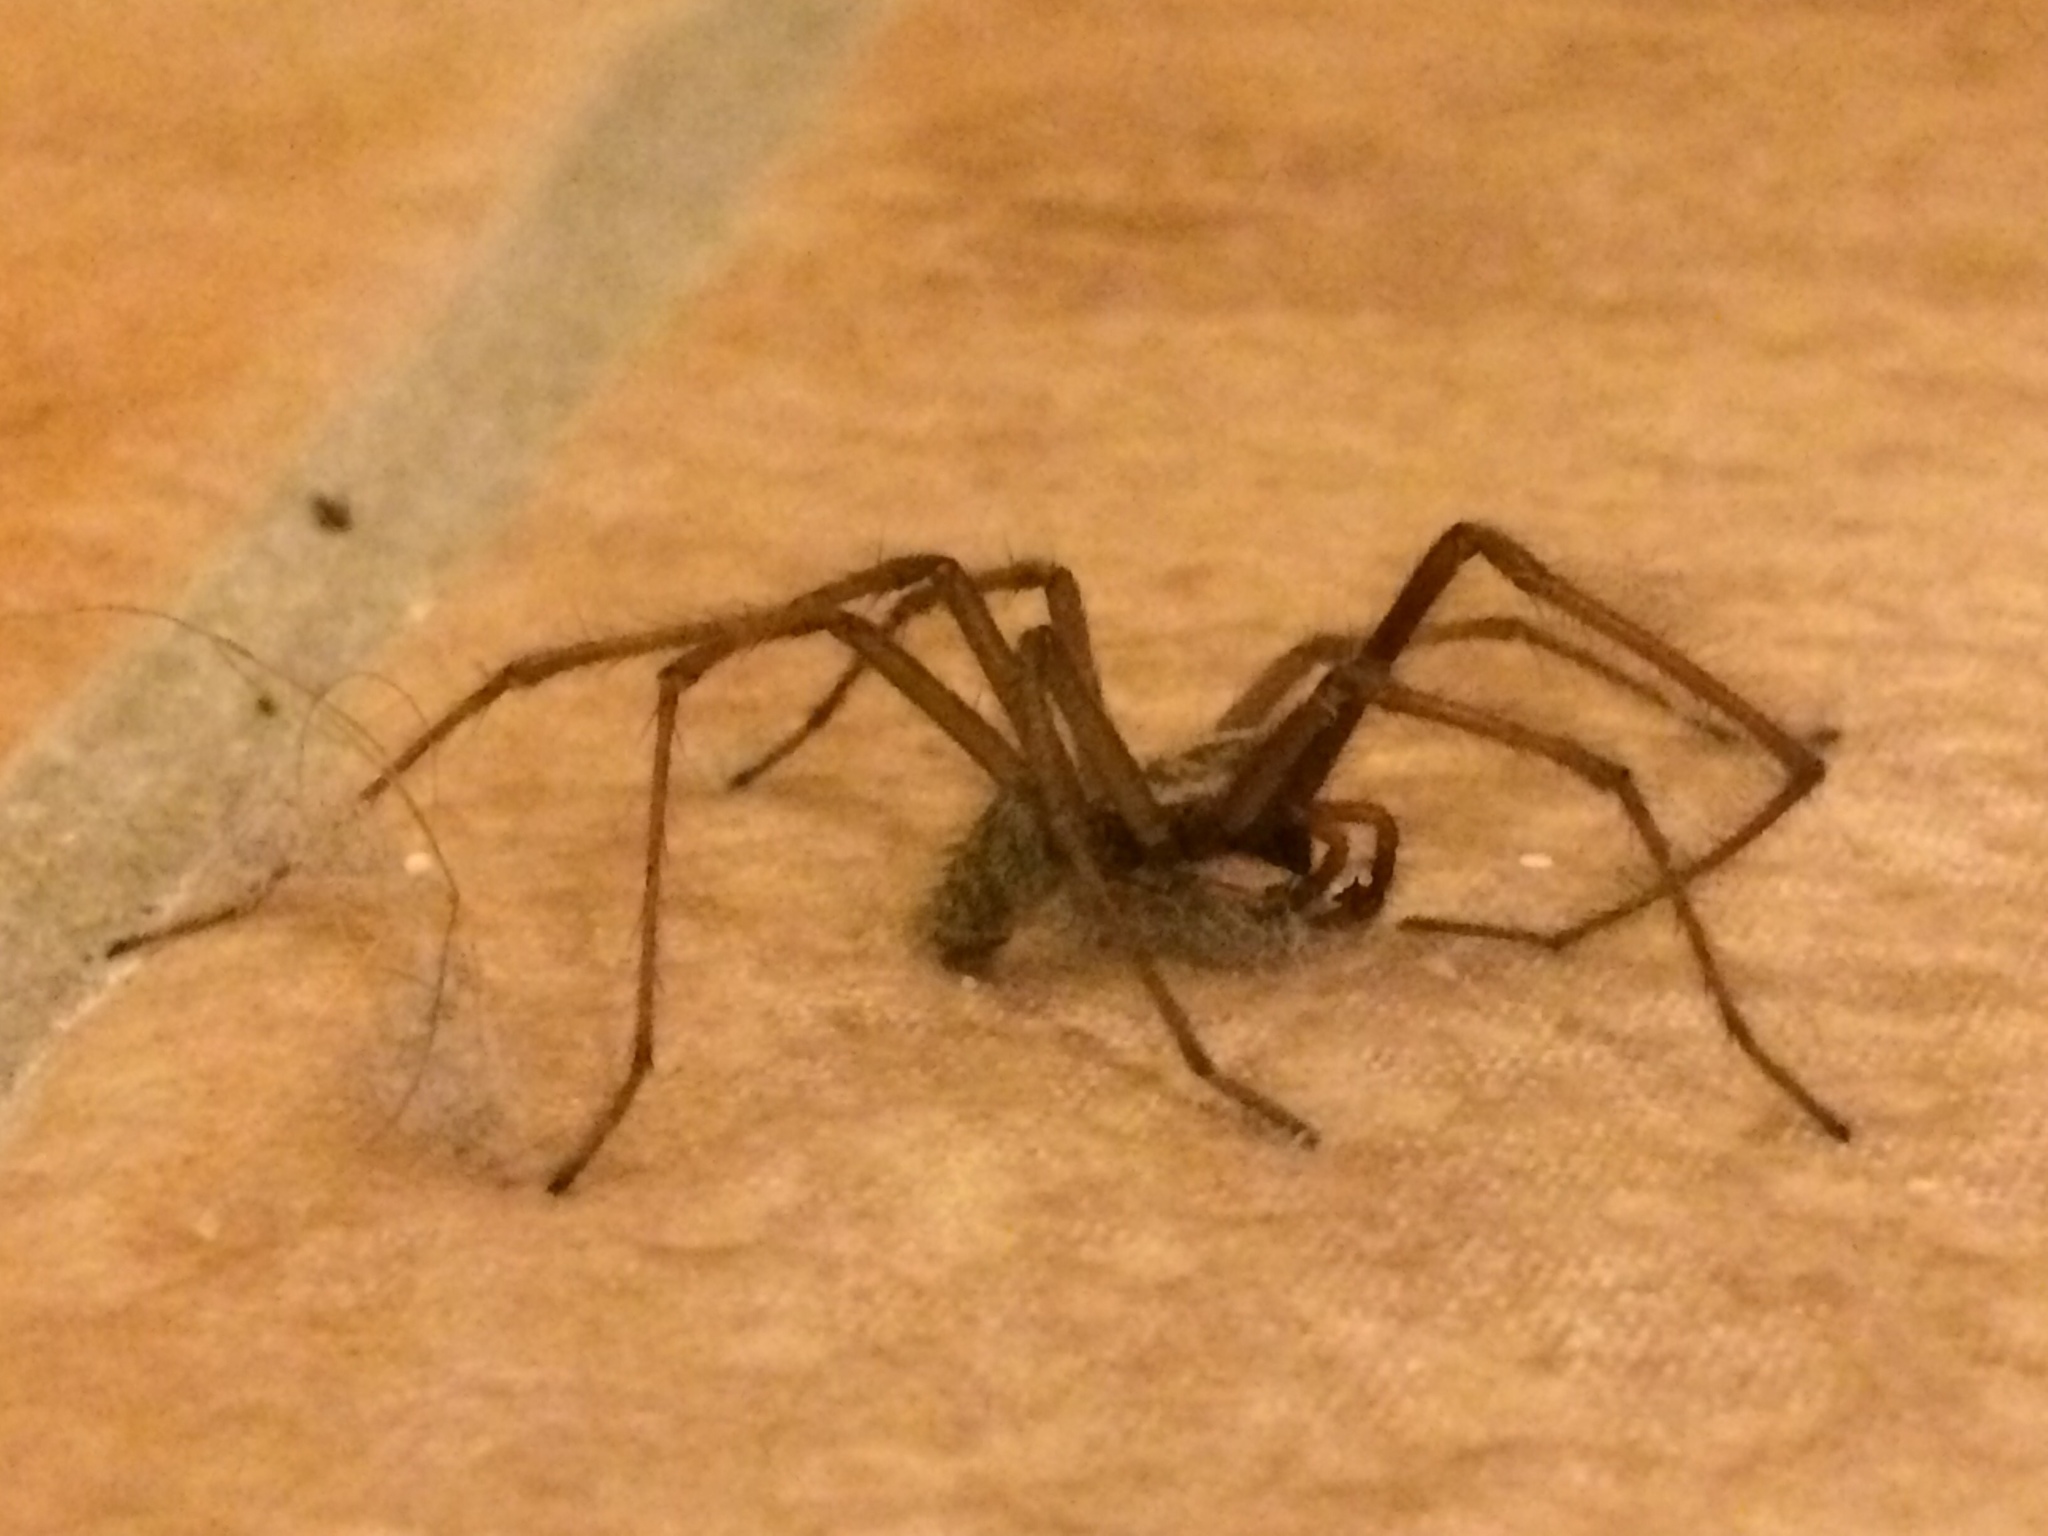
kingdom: Animalia
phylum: Arthropoda
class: Arachnida
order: Araneae
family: Agelenidae
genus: Eratigena
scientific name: Eratigena atrica
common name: Giant house spider
